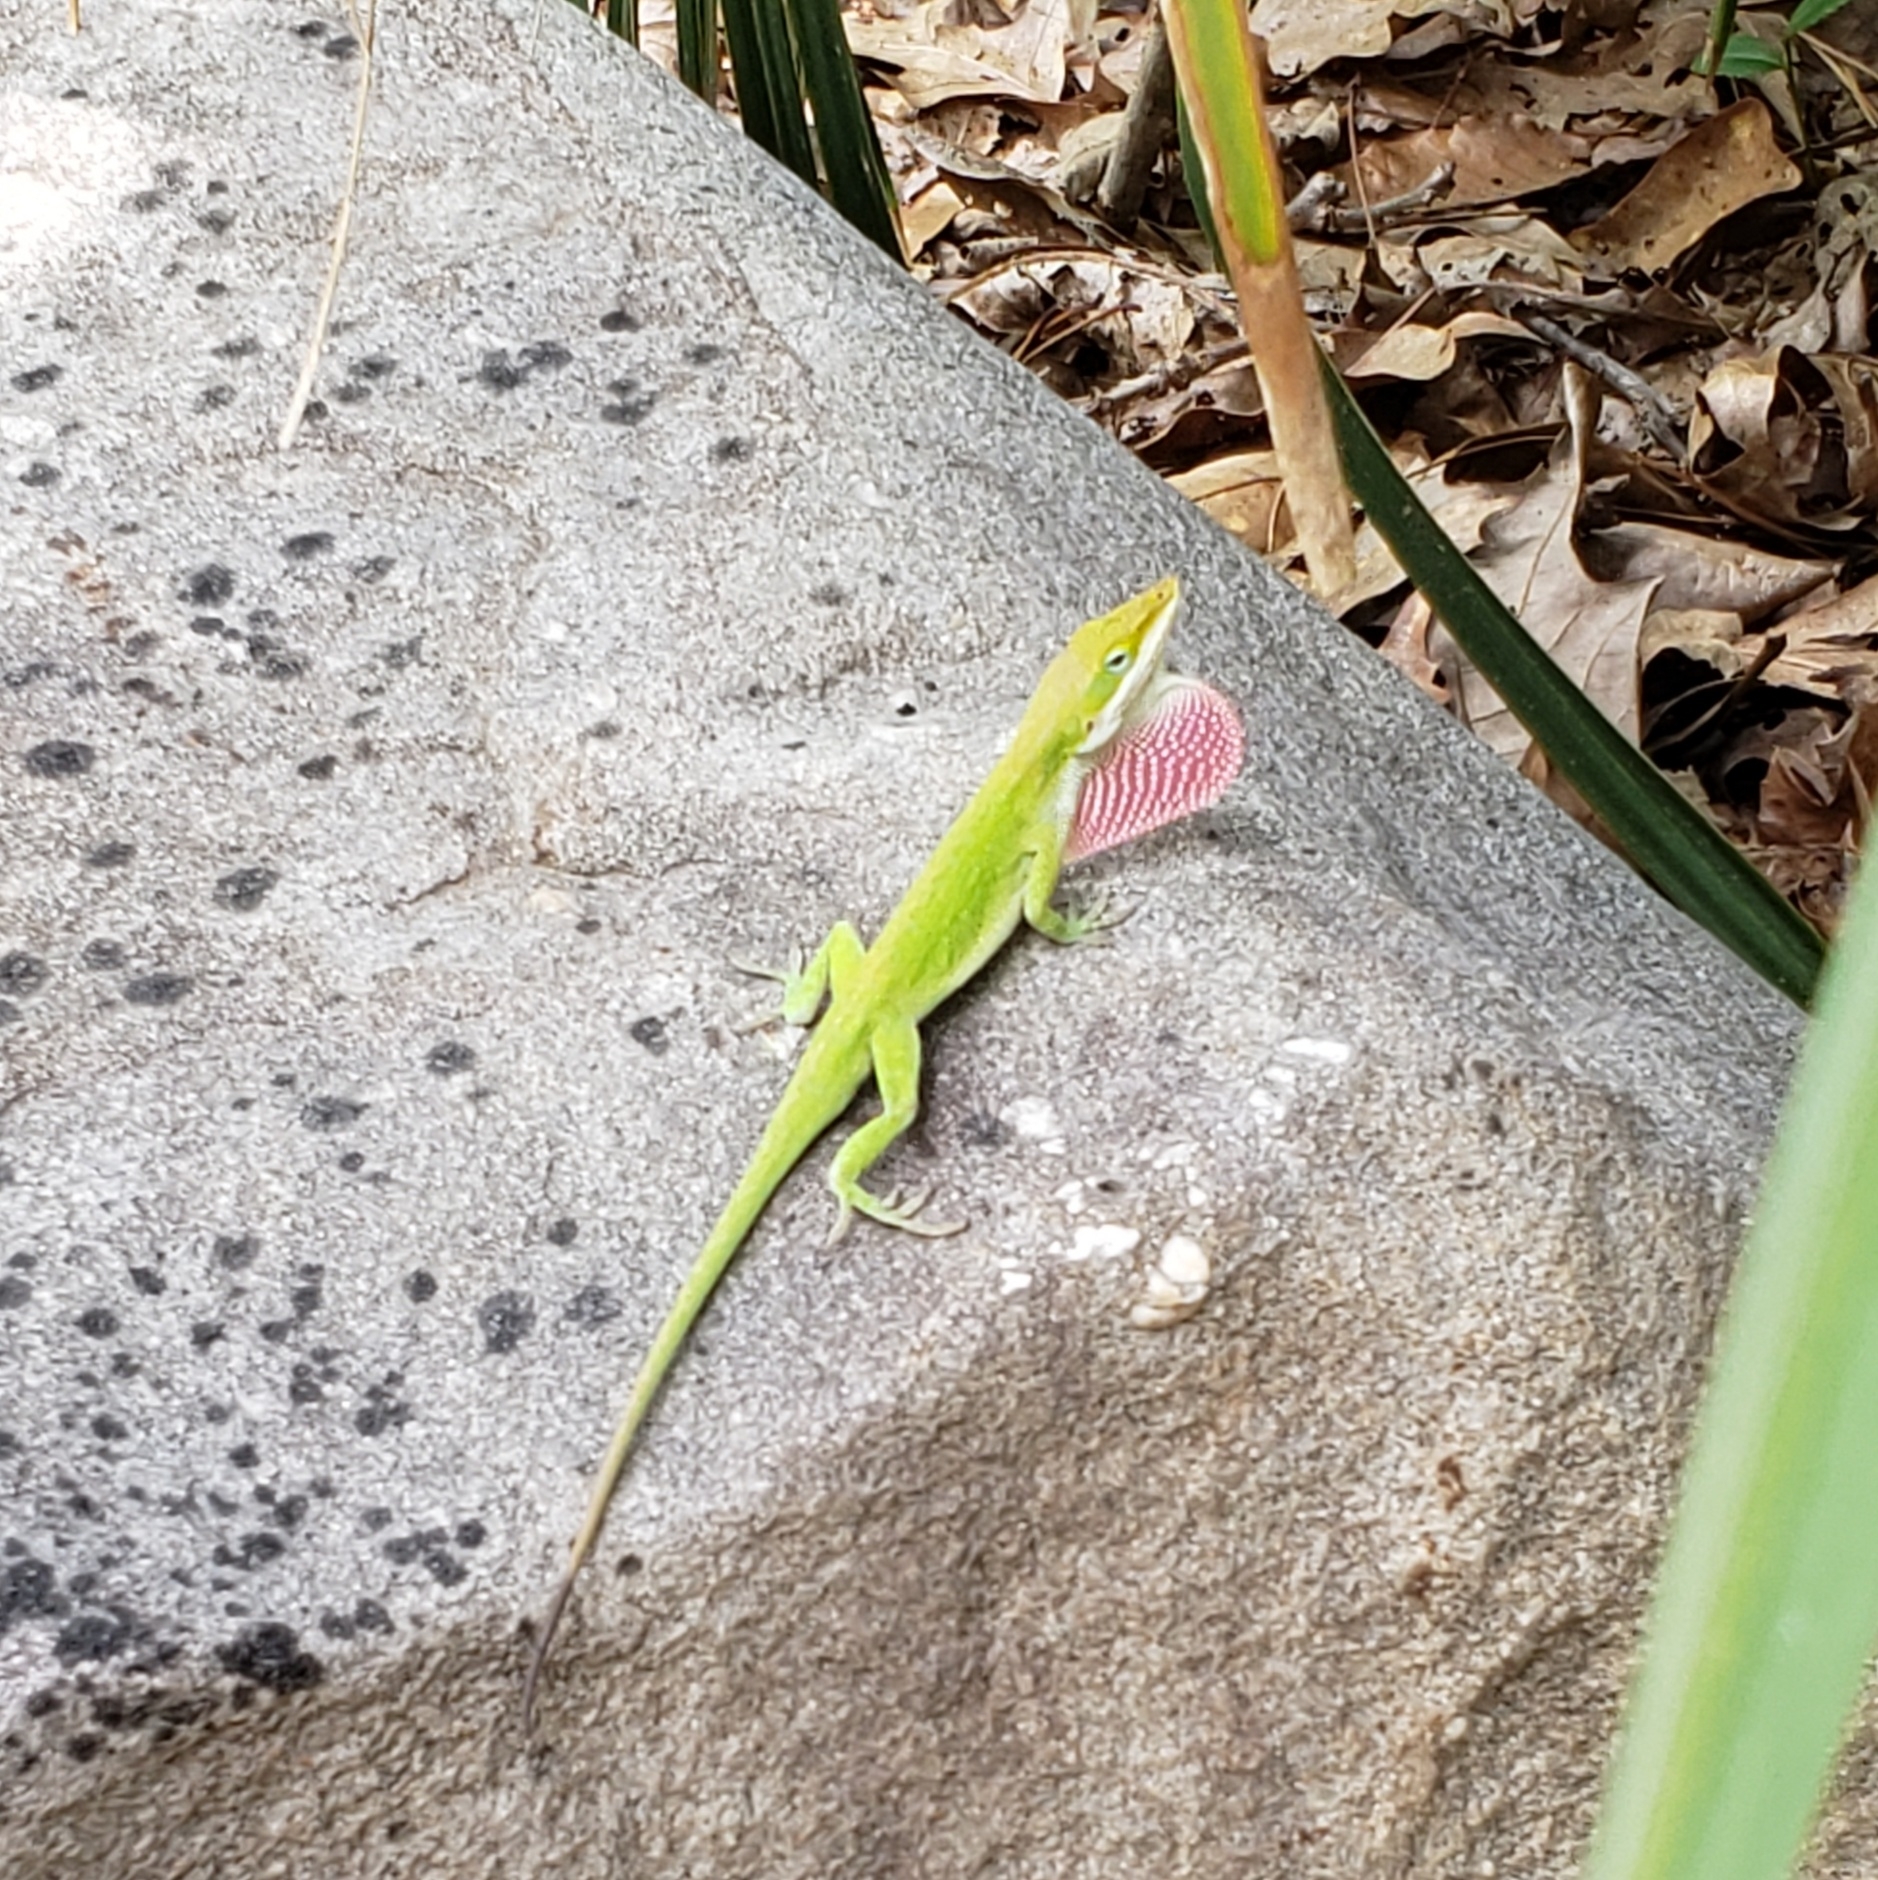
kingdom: Animalia
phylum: Chordata
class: Squamata
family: Dactyloidae
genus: Anolis
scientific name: Anolis carolinensis
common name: Green anole
